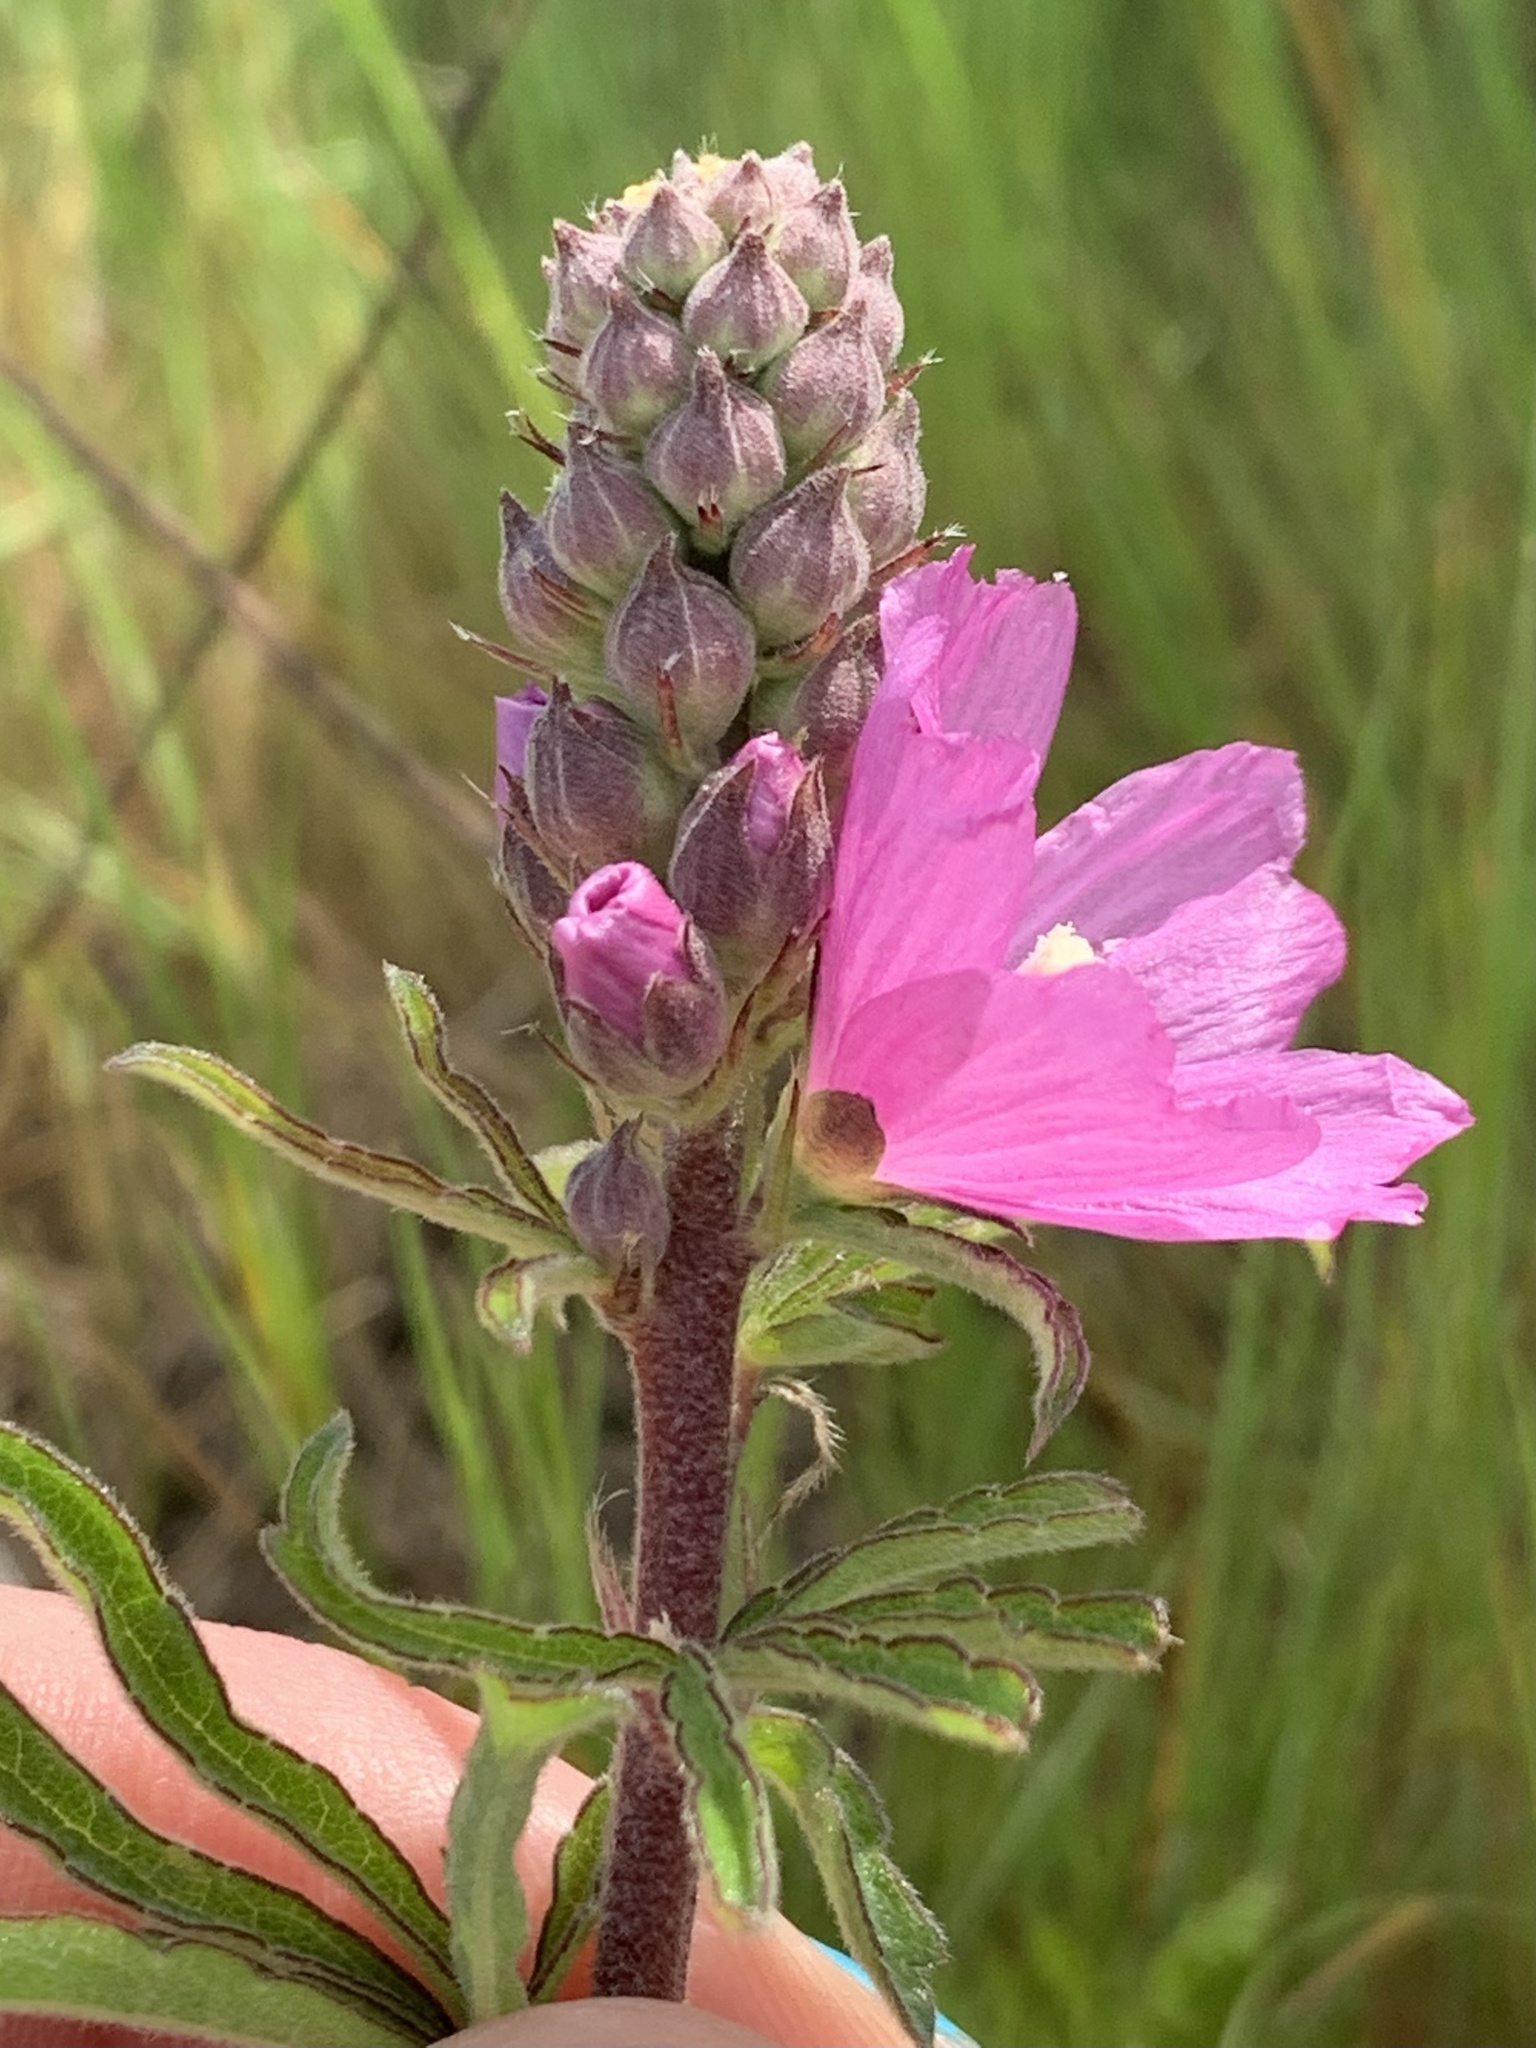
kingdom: Plantae
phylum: Tracheophyta
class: Magnoliopsida
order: Malvales
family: Malvaceae
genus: Sidalcea
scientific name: Sidalcea campestris
